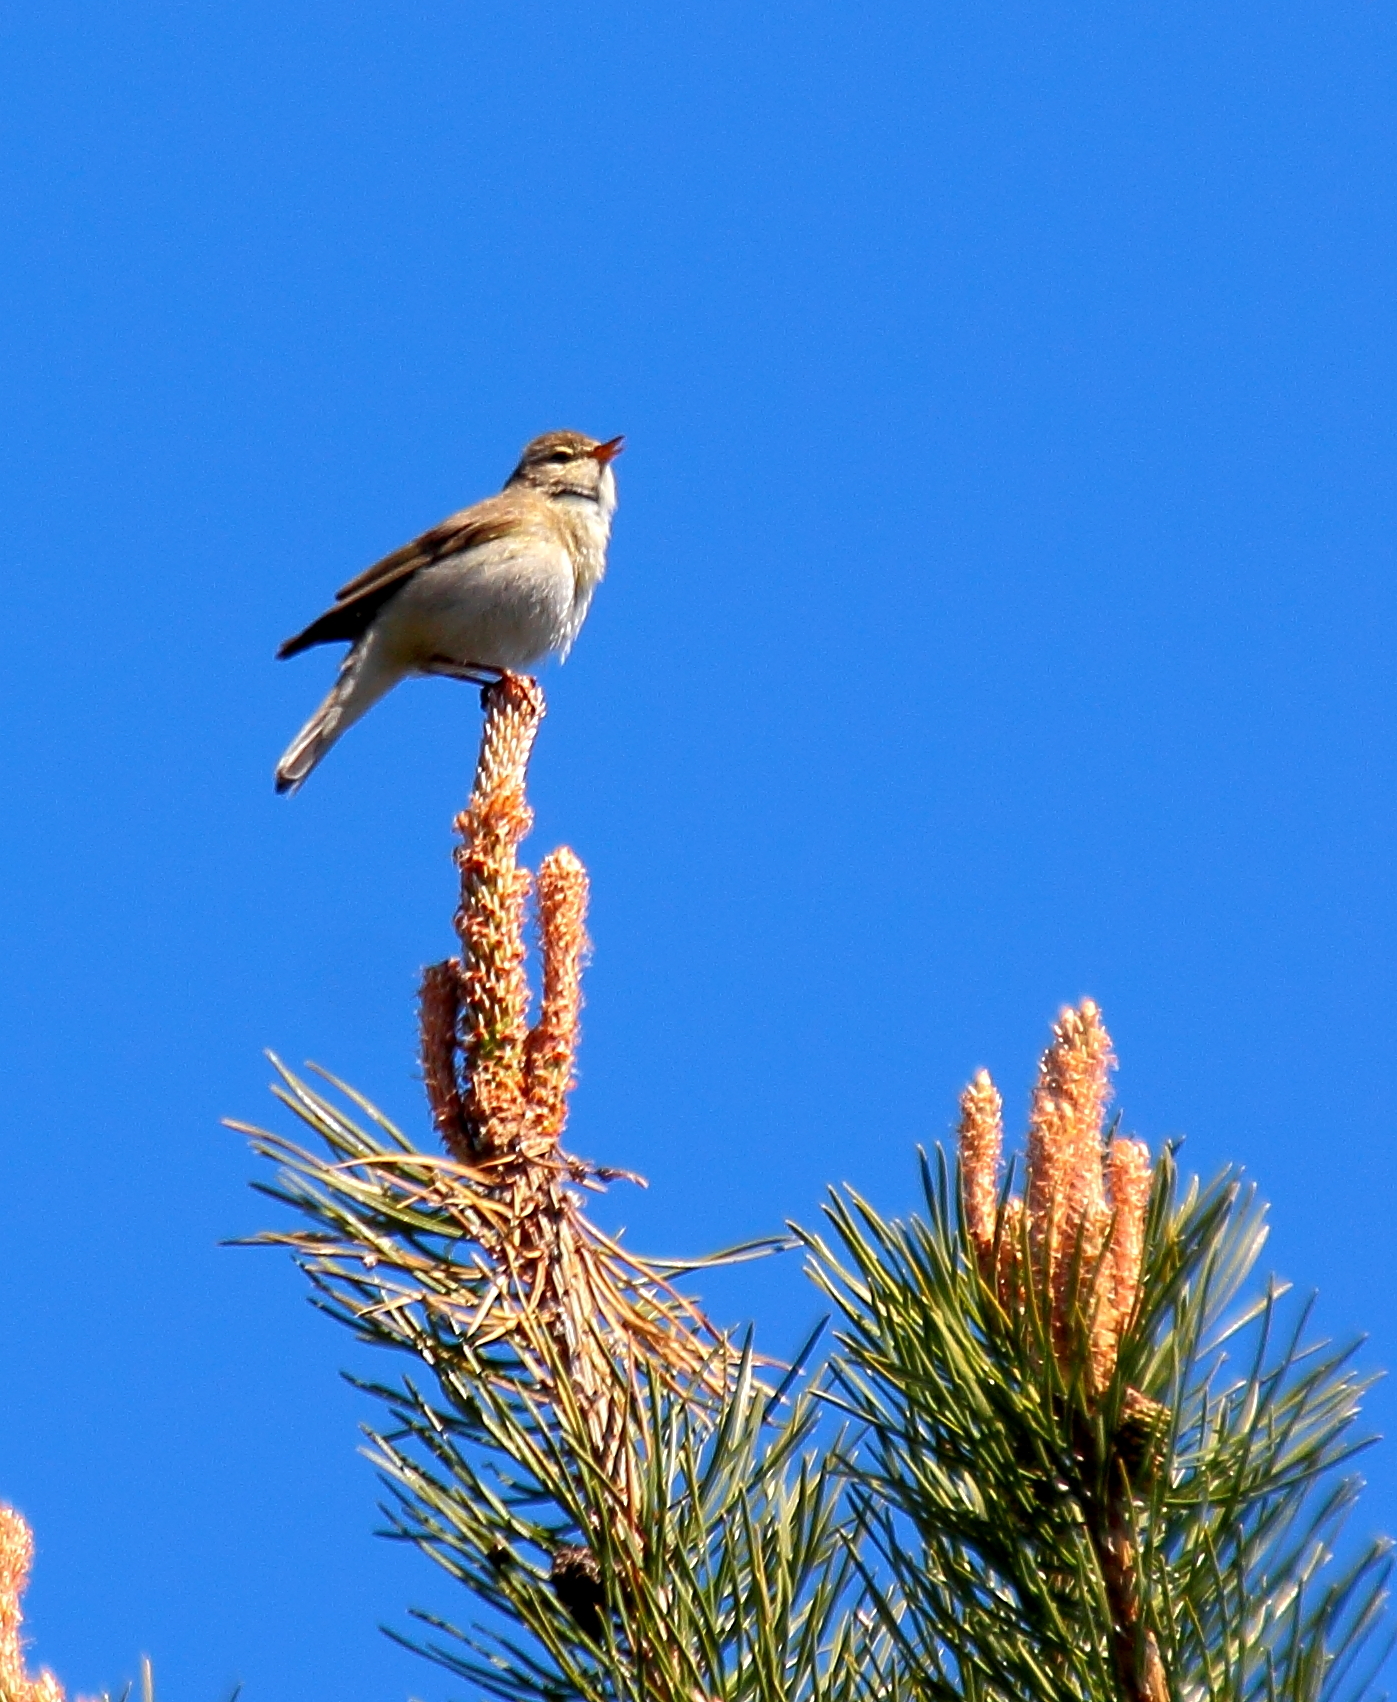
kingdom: Animalia
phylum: Chordata
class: Aves
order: Passeriformes
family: Phylloscopidae
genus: Phylloscopus
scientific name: Phylloscopus trochilus
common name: Willow warbler
